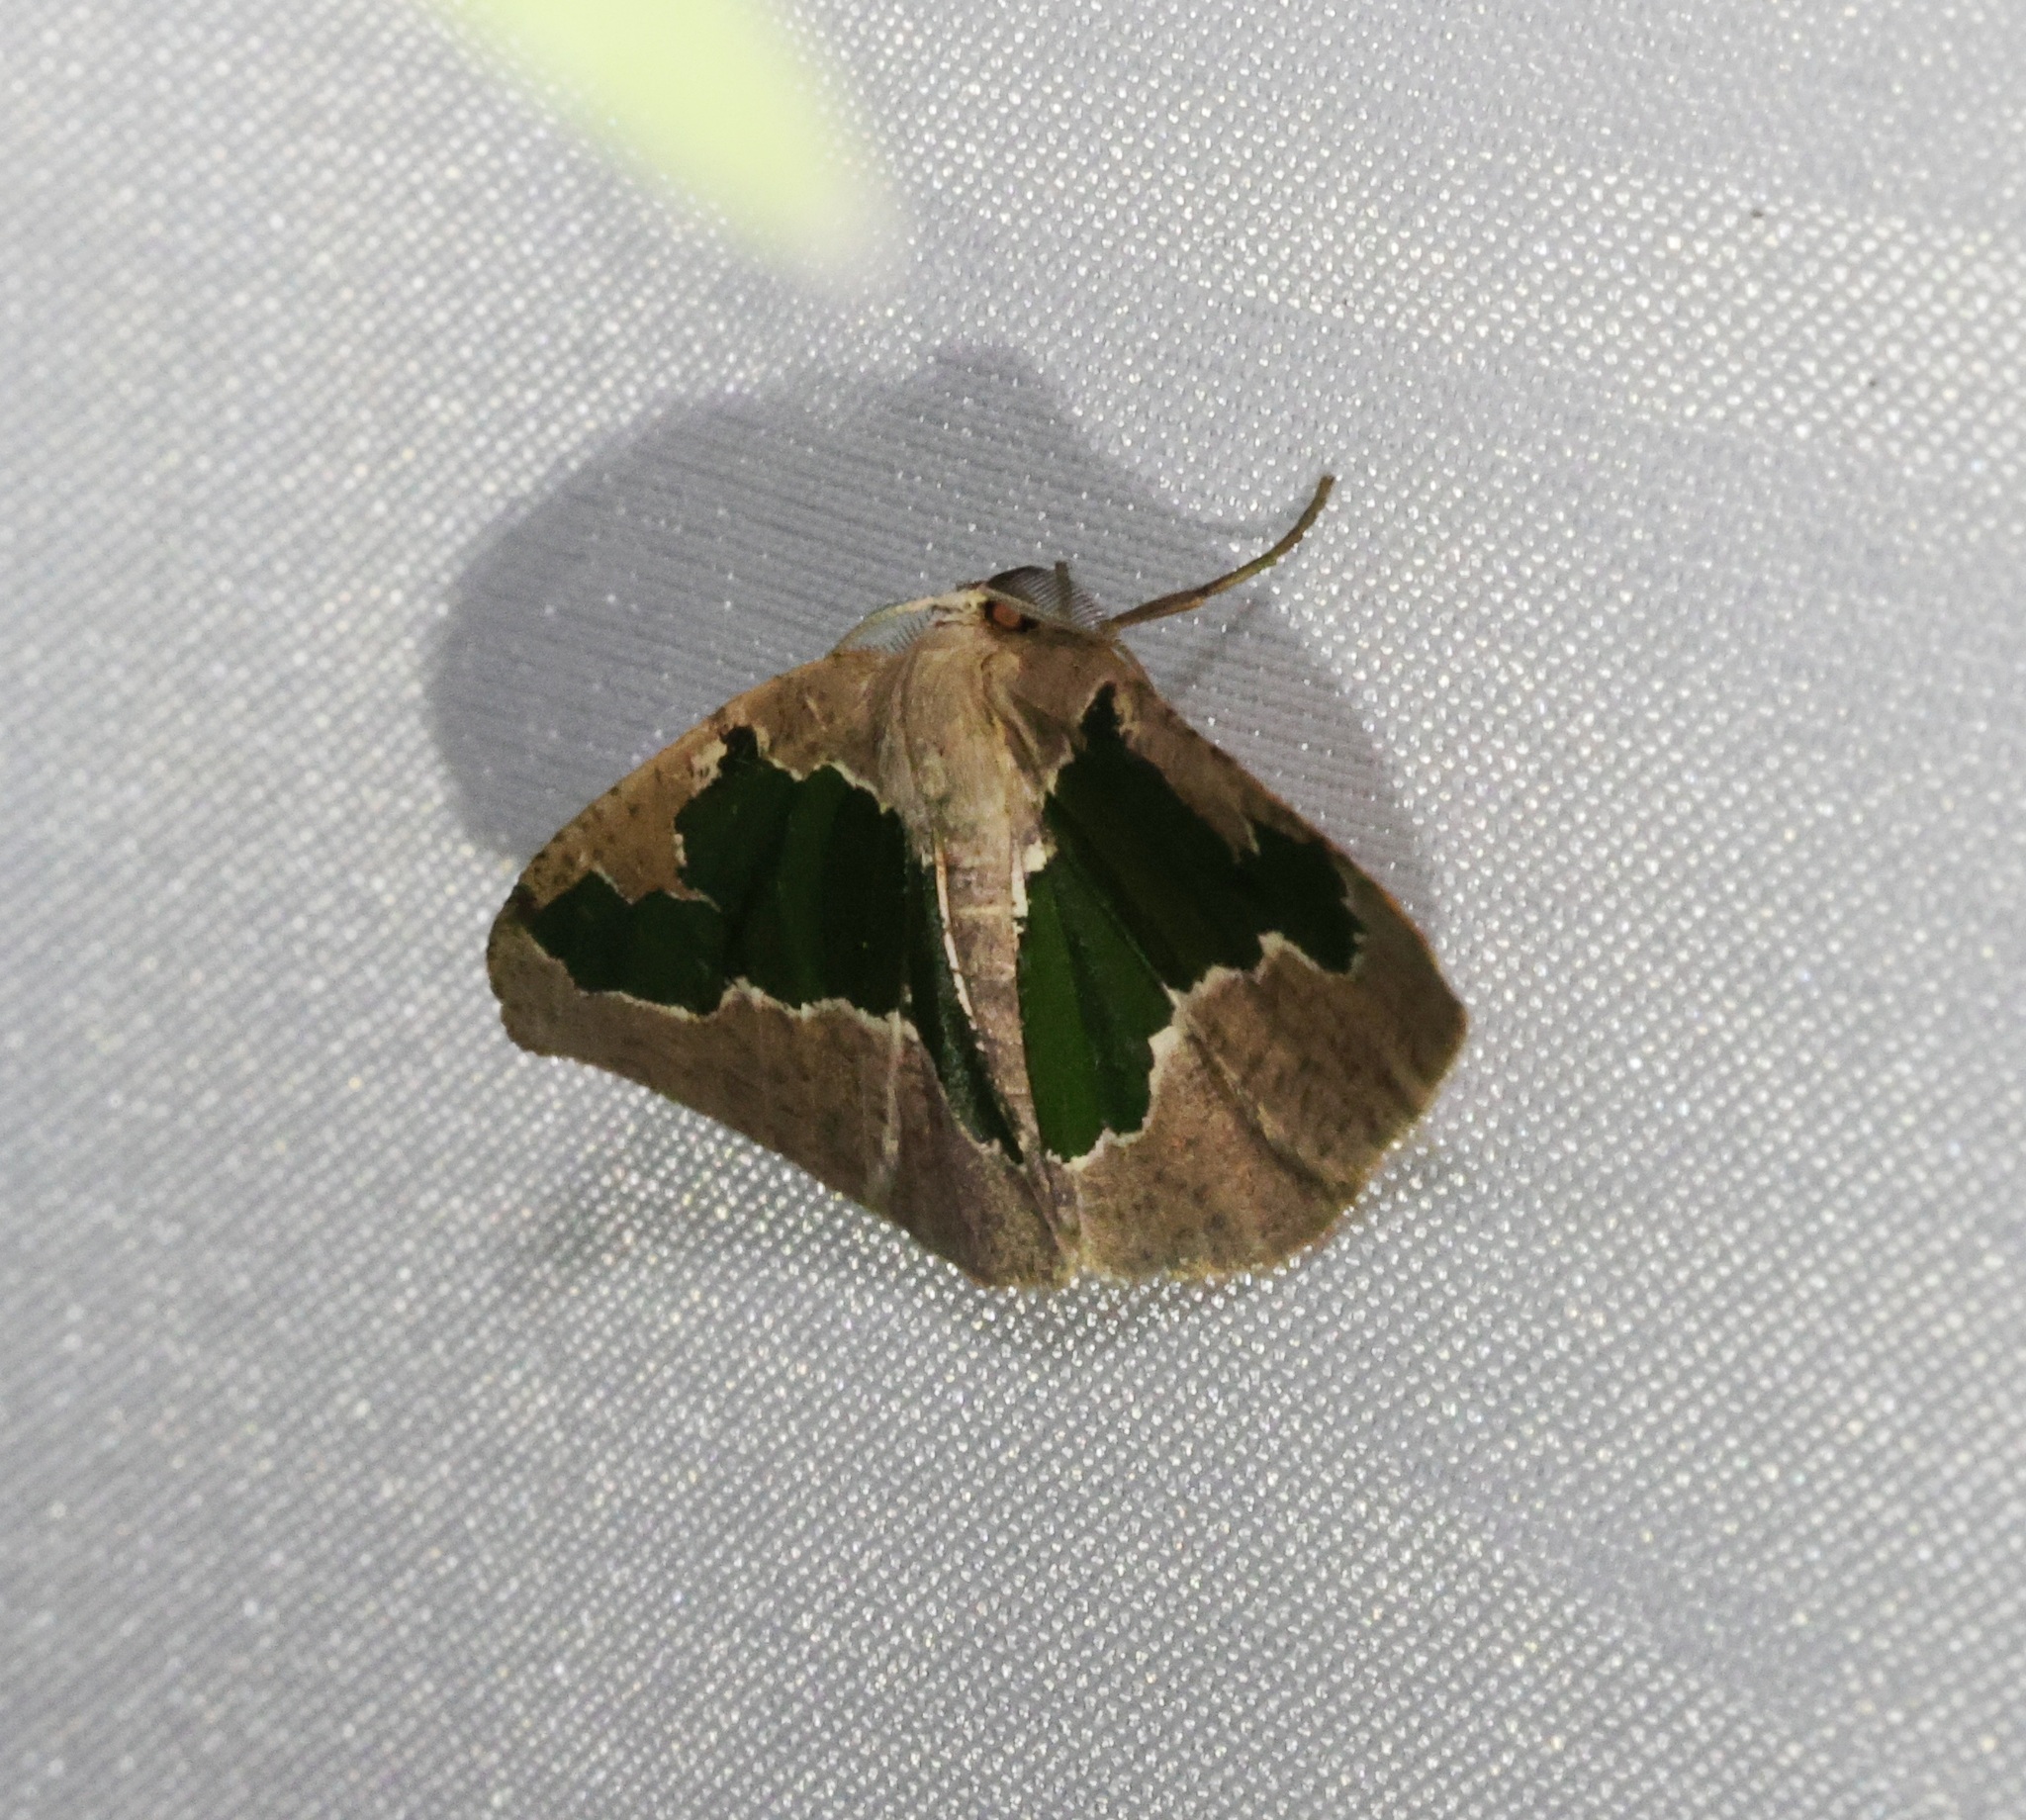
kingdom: Animalia
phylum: Arthropoda
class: Insecta
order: Lepidoptera
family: Geometridae
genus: Celenna
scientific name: Celenna festivaria
